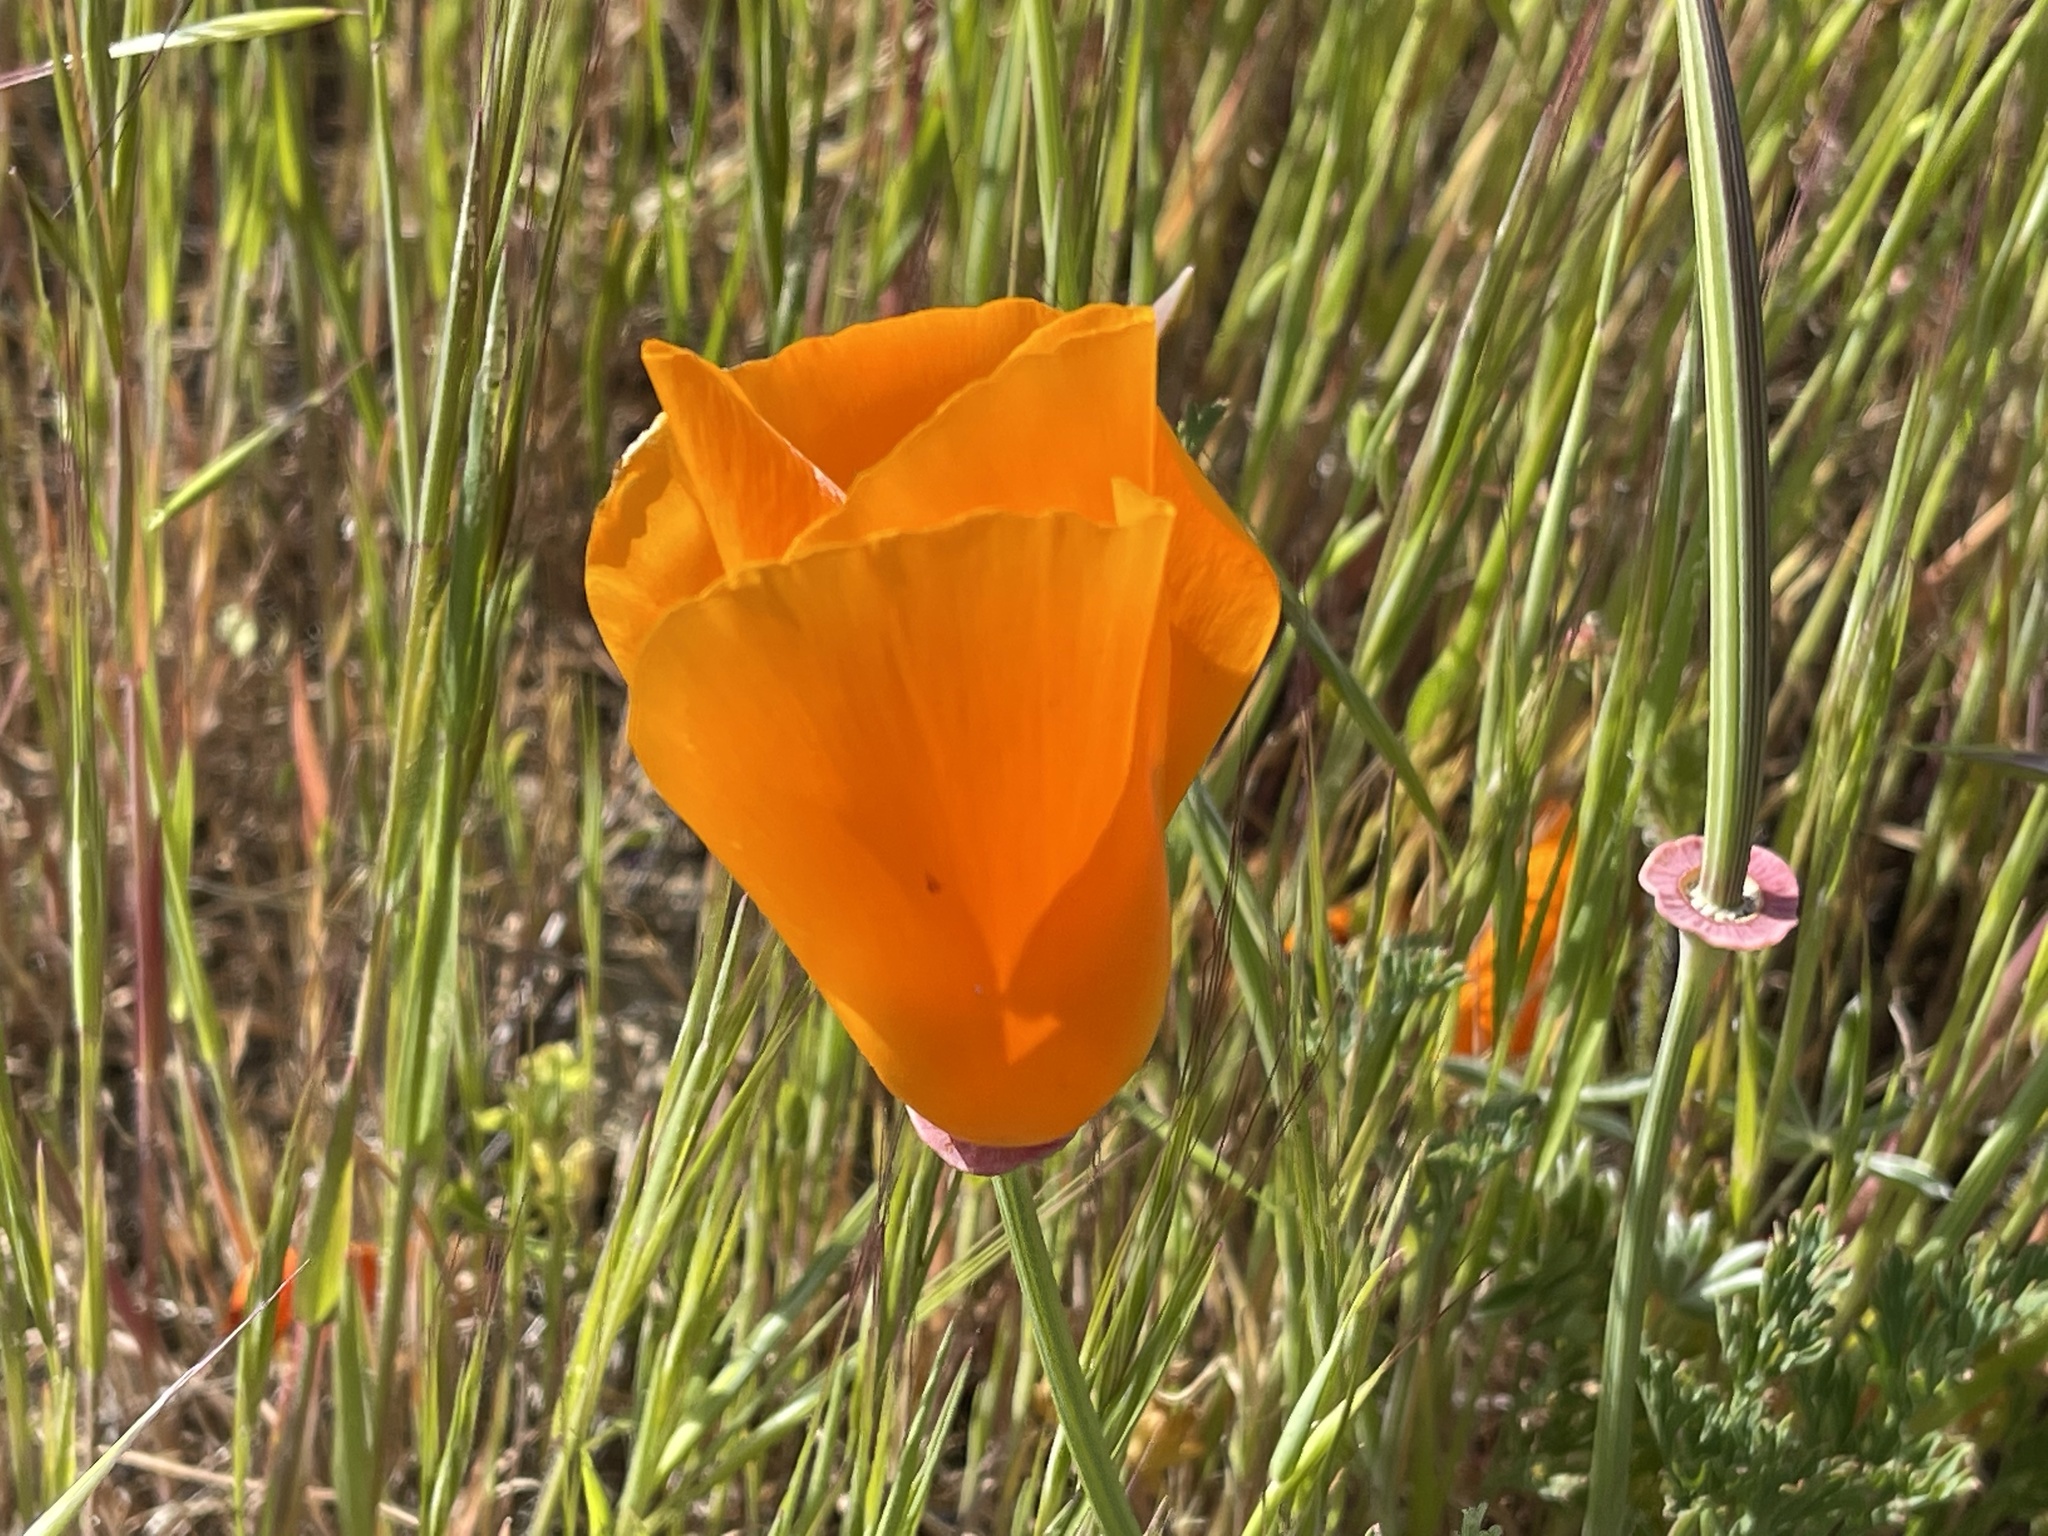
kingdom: Plantae
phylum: Tracheophyta
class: Magnoliopsida
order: Ranunculales
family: Papaveraceae
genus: Eschscholzia
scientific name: Eschscholzia californica
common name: California poppy
